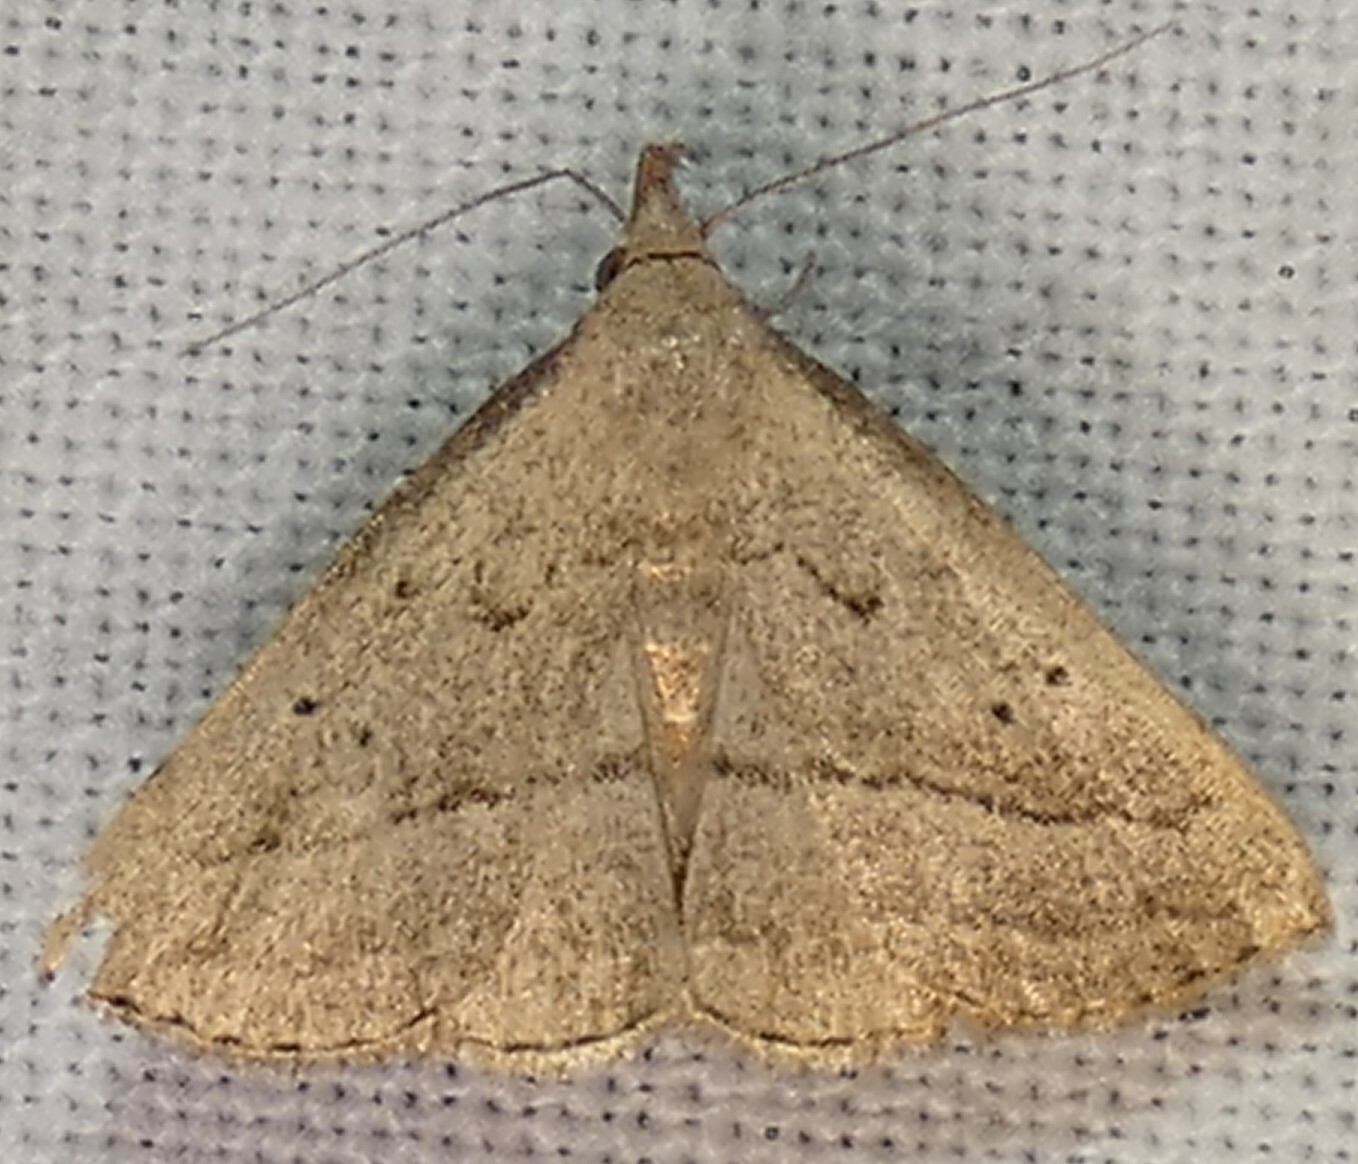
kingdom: Animalia
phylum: Arthropoda
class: Insecta
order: Lepidoptera
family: Erebidae
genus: Macrochilo
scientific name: Macrochilo hypocritalis
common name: Twin-dotted owlet
